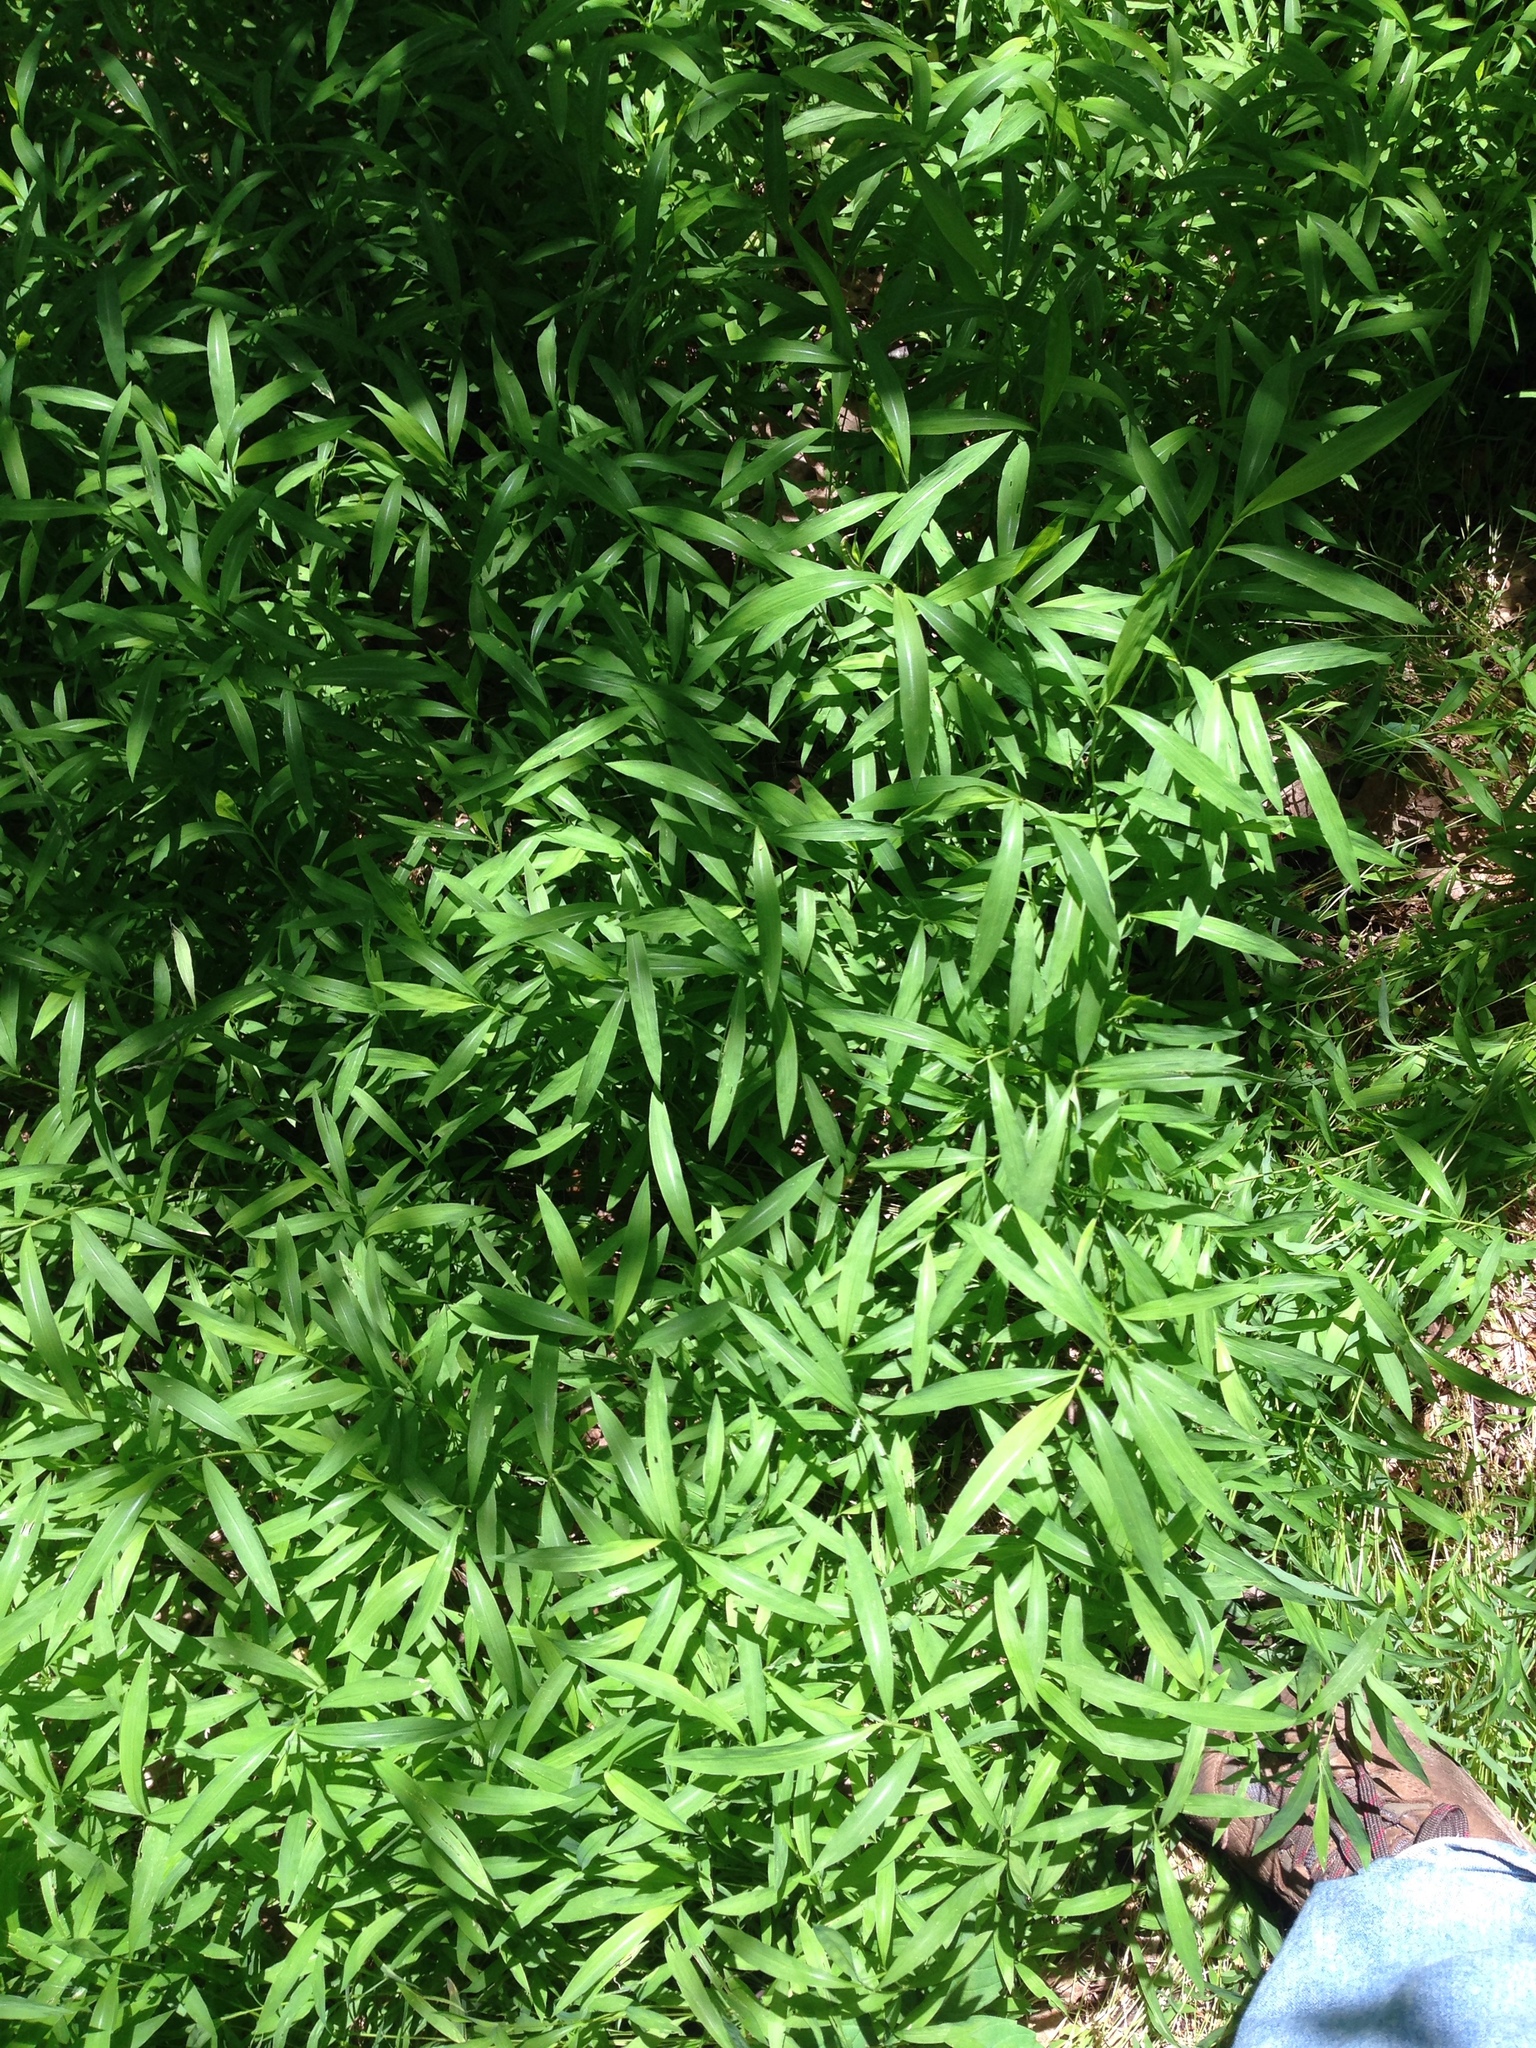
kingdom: Plantae
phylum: Tracheophyta
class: Liliopsida
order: Poales
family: Poaceae
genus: Microstegium
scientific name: Microstegium vimineum
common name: Japanese stiltgrass
